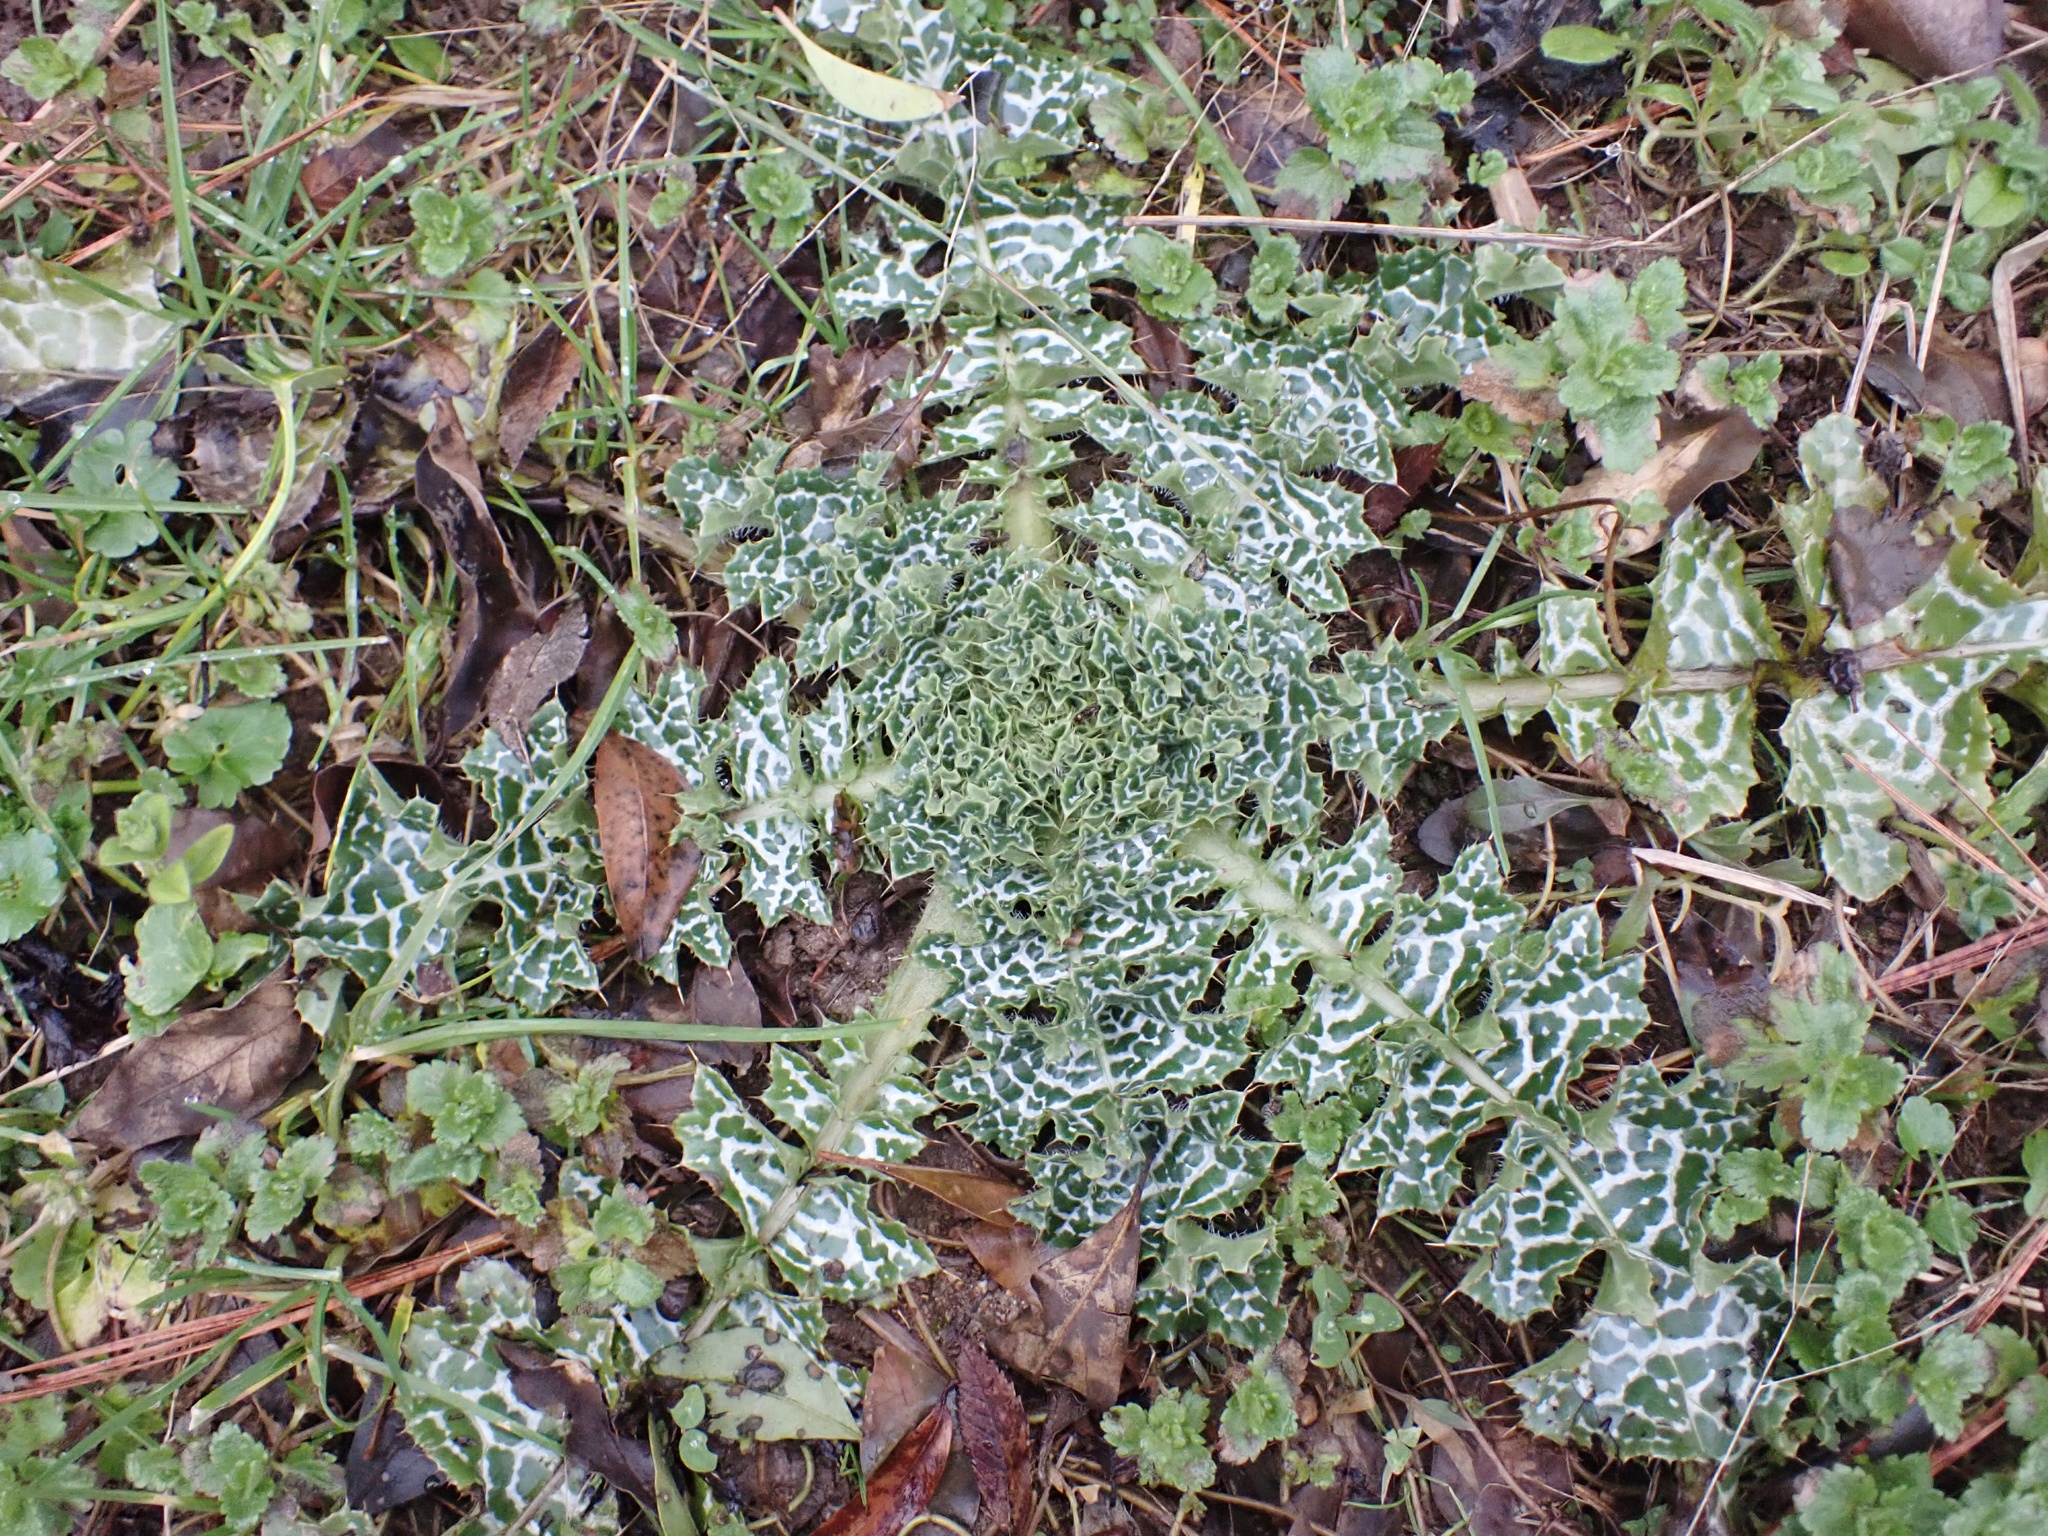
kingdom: Plantae
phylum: Tracheophyta
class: Magnoliopsida
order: Asterales
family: Asteraceae
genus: Silybum
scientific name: Silybum marianum
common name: Milk thistle
